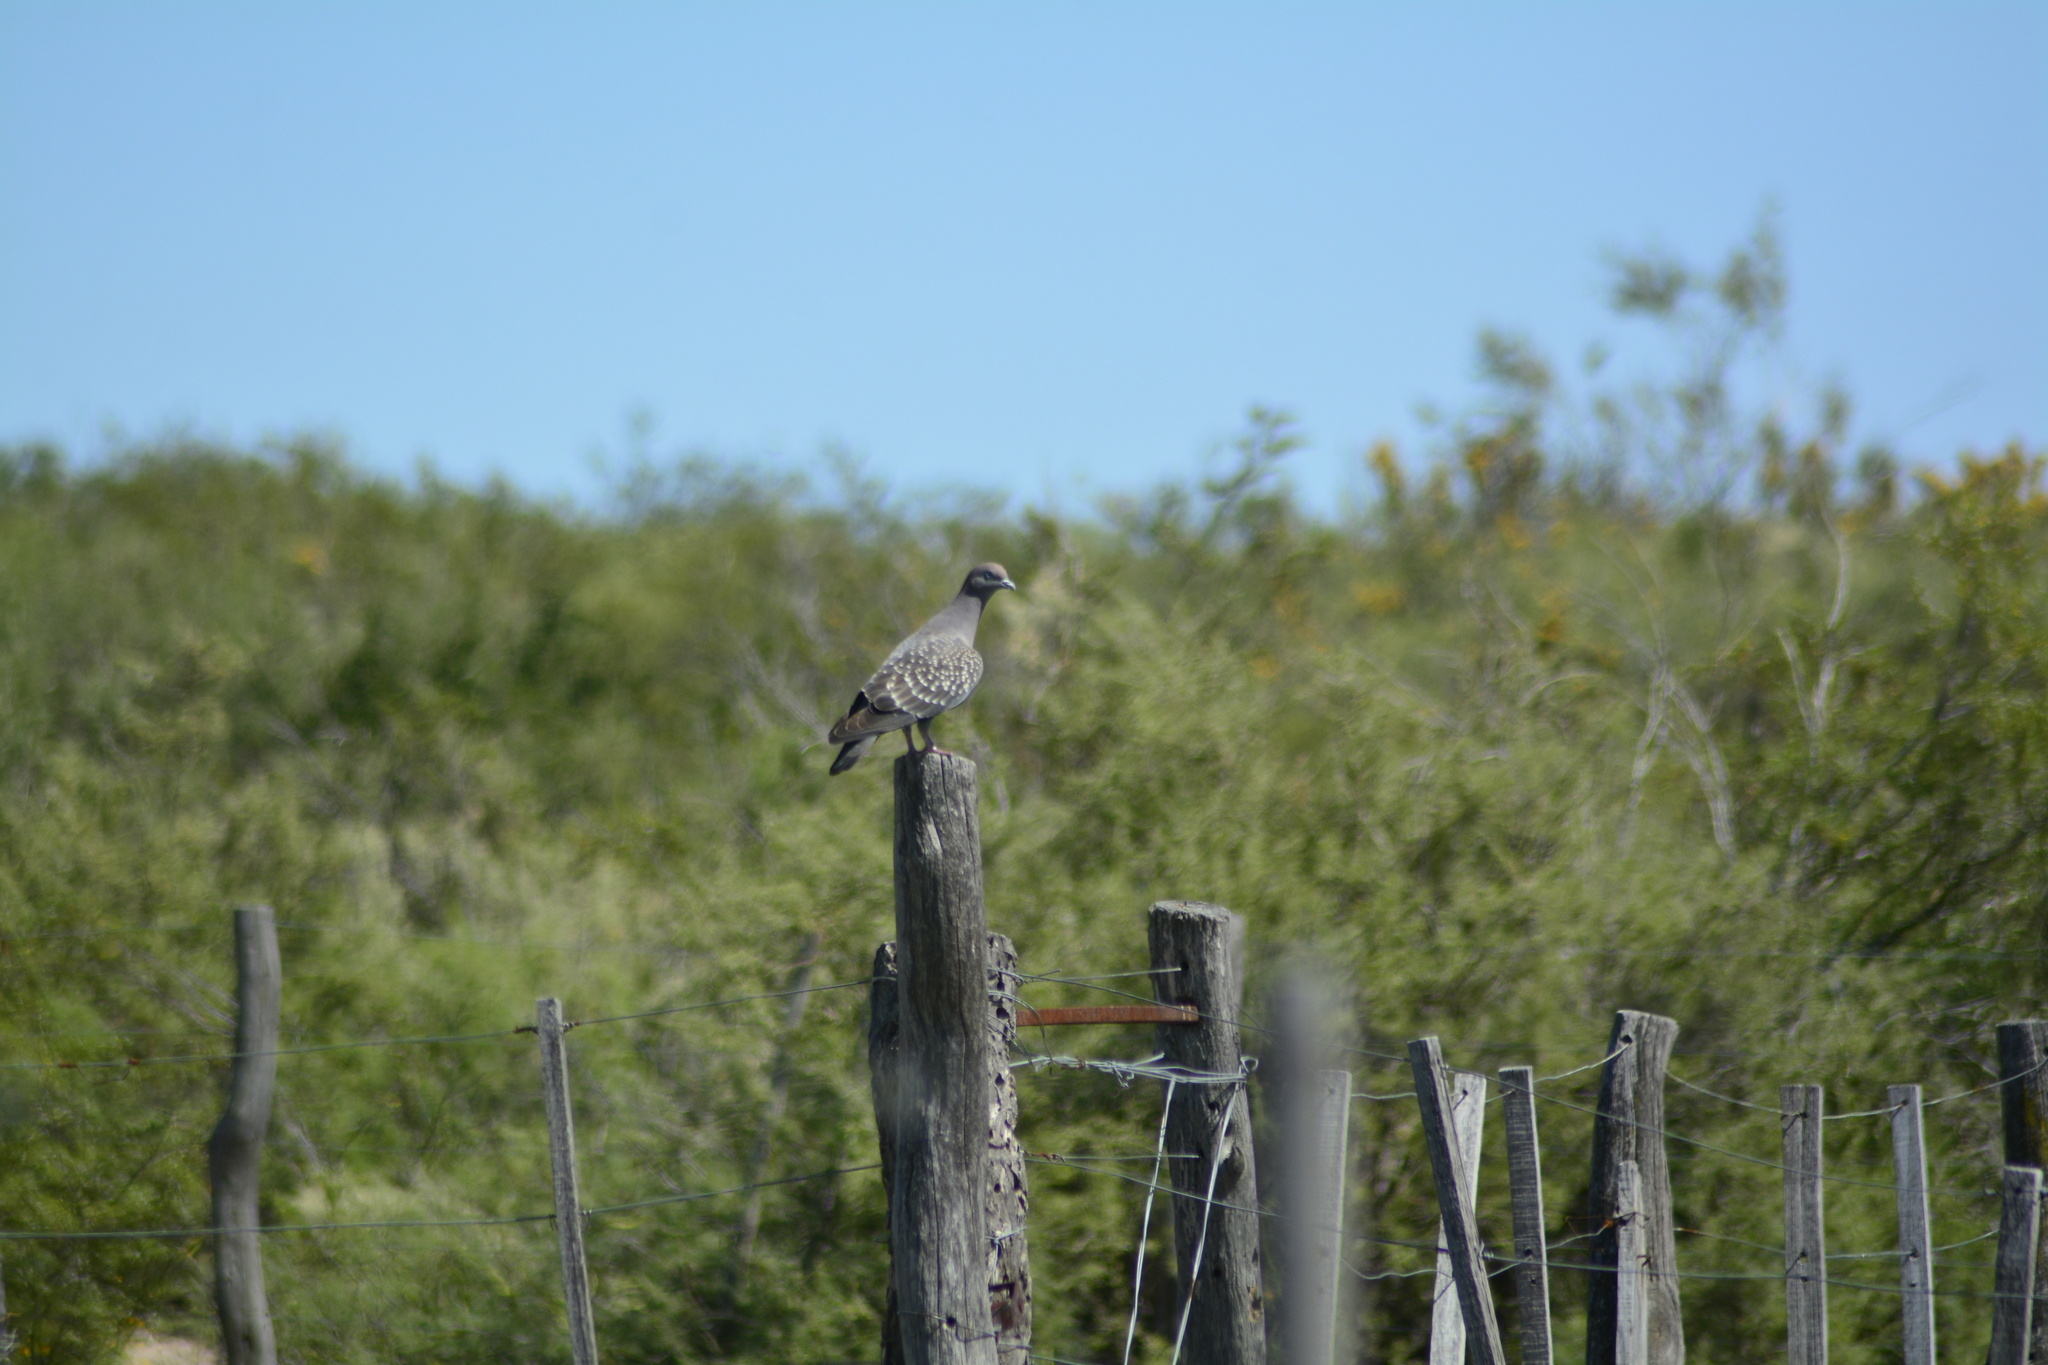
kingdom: Animalia
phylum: Chordata
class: Aves
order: Columbiformes
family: Columbidae
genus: Patagioenas
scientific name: Patagioenas maculosa
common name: Spot-winged pigeon
